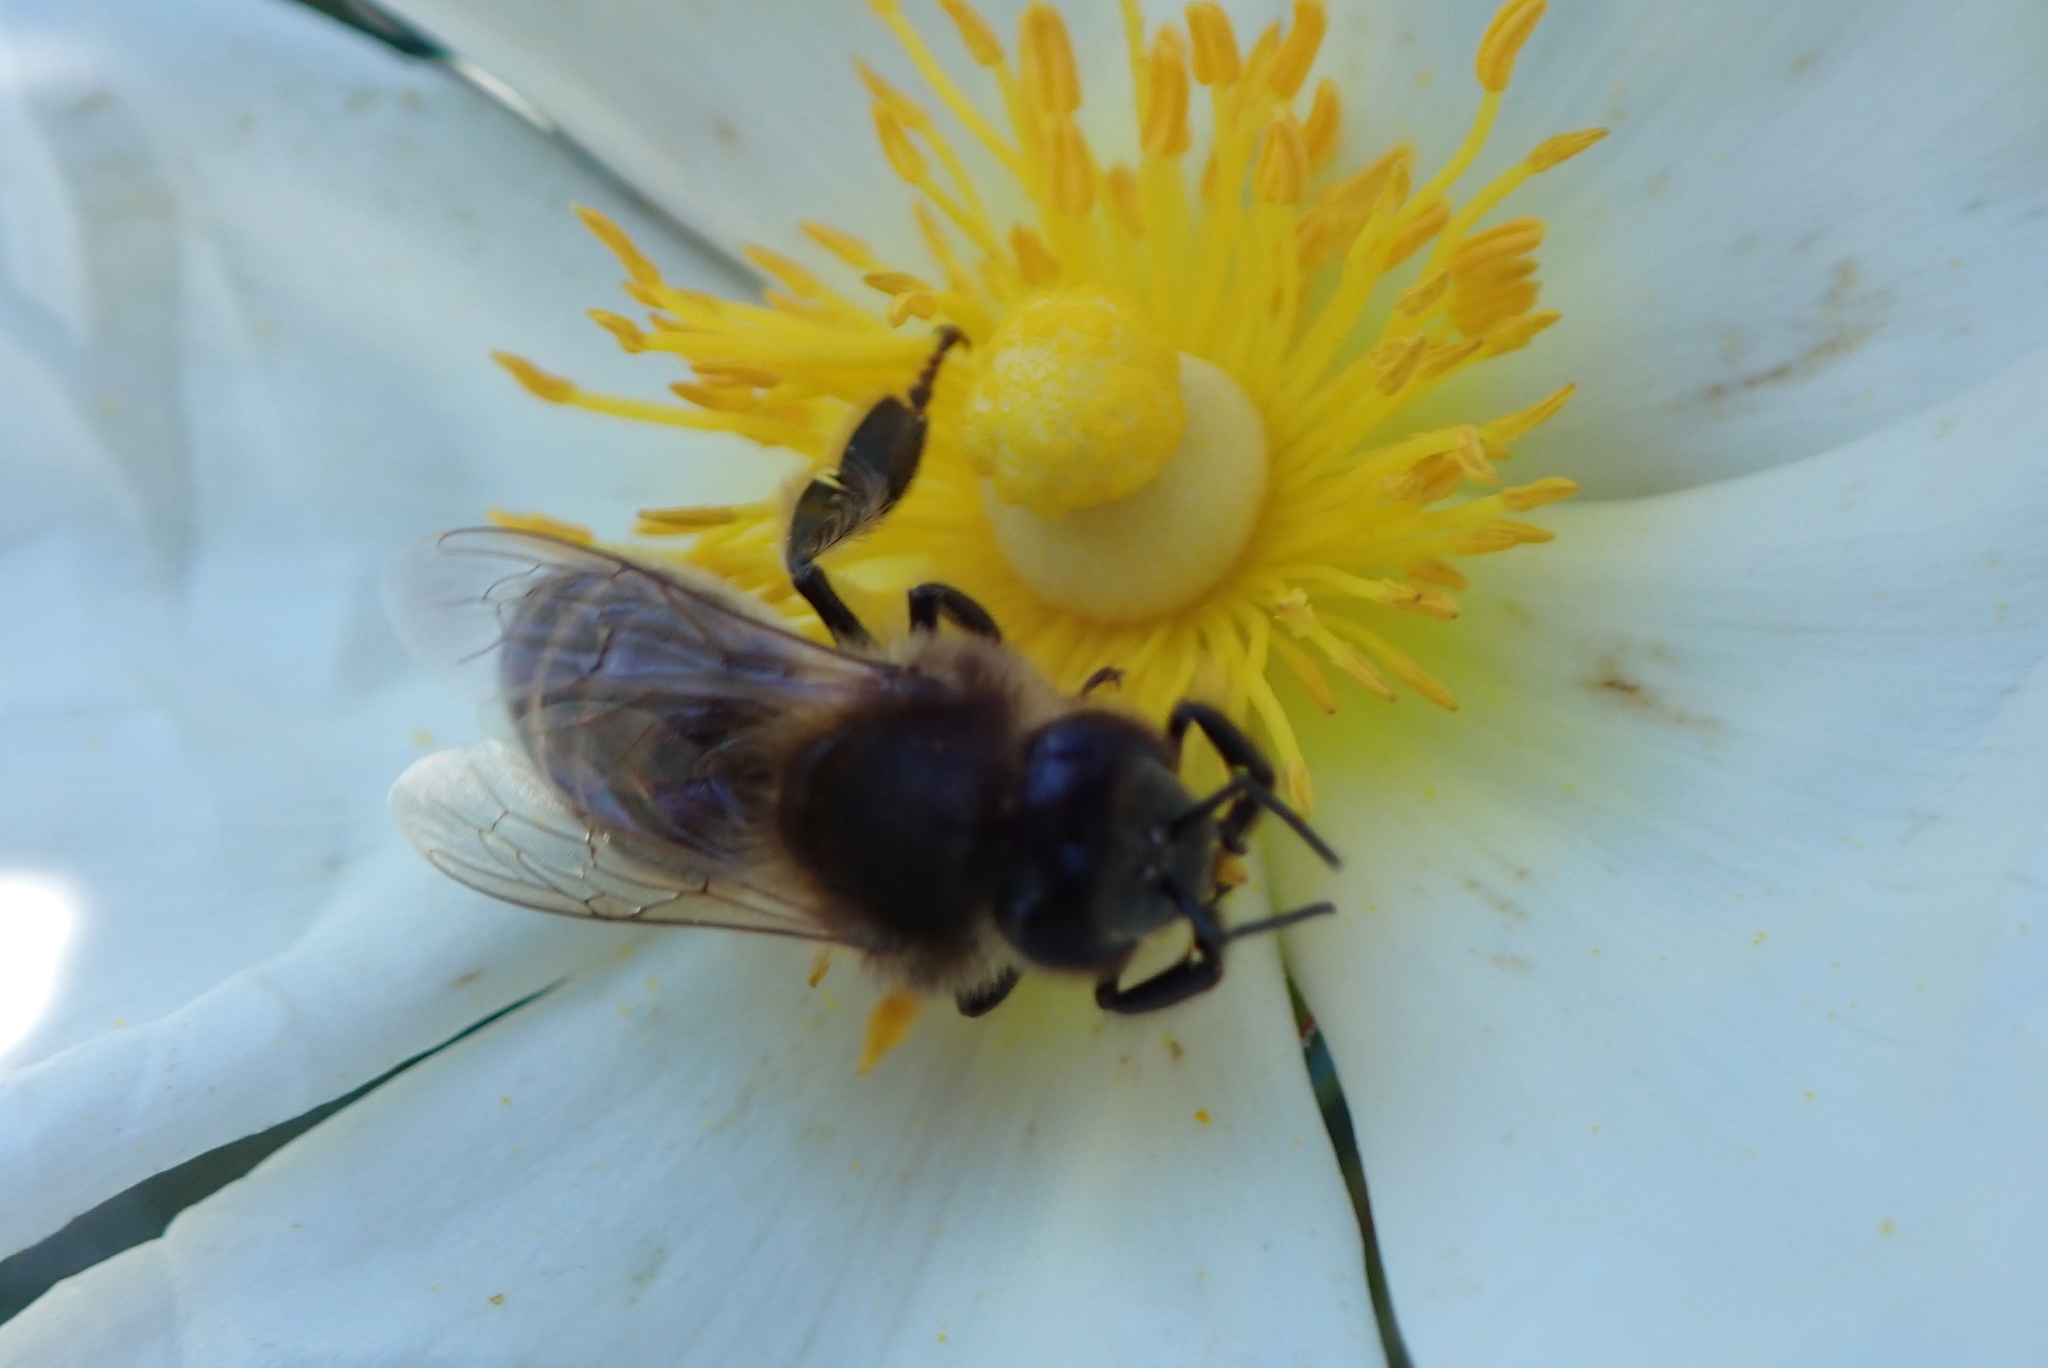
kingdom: Animalia
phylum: Arthropoda
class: Insecta
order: Hymenoptera
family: Apidae
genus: Apis
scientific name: Apis mellifera
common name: Honey bee
